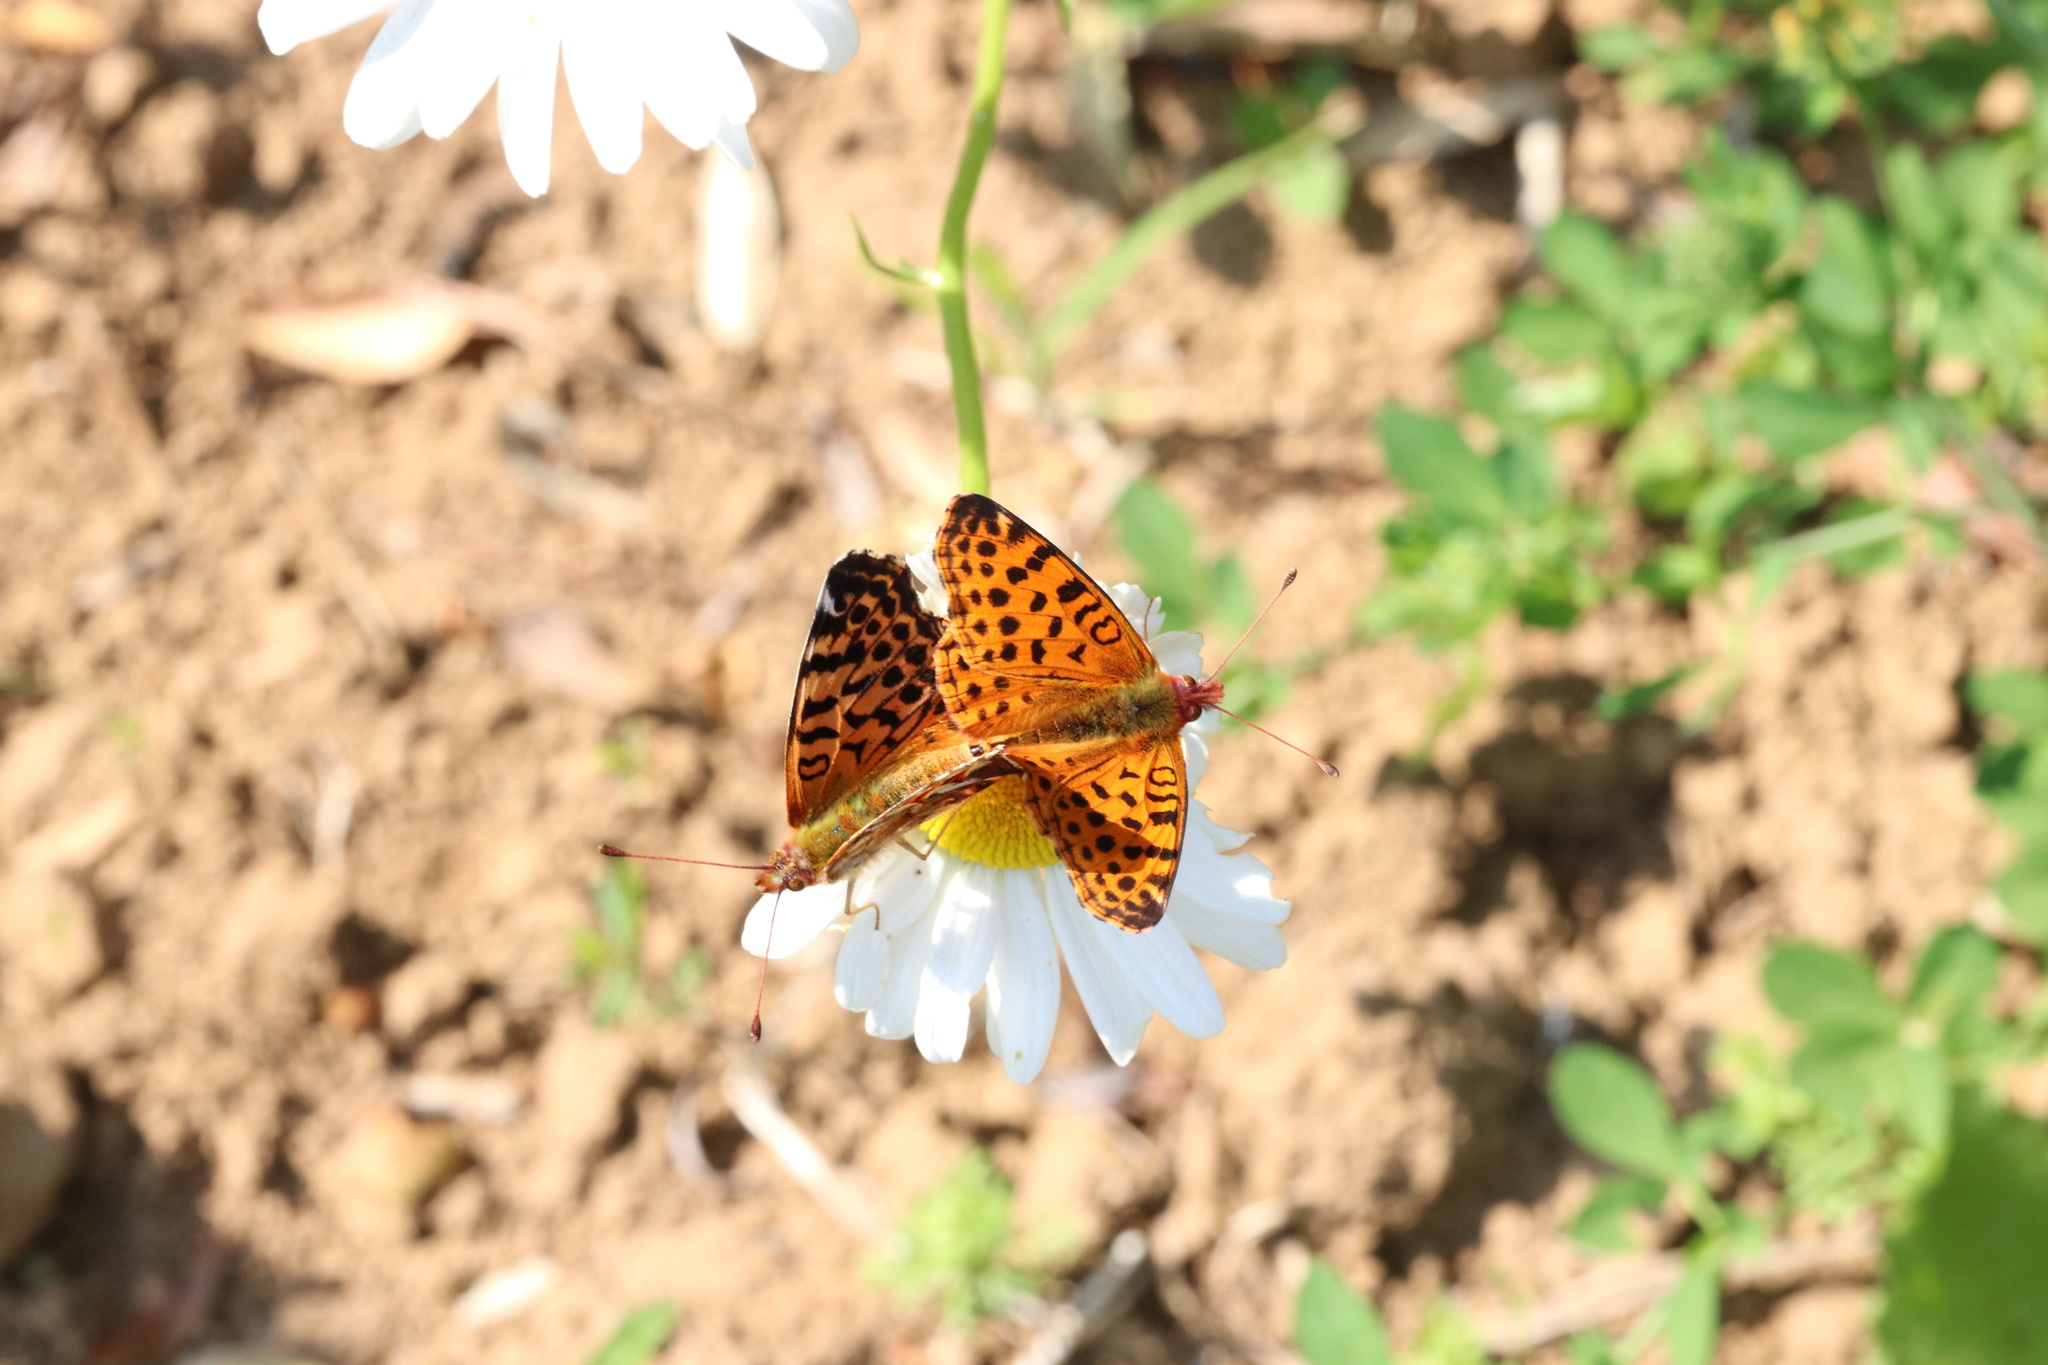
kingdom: Animalia
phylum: Arthropoda
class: Insecta
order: Lepidoptera
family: Nymphalidae
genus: Issoria
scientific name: Issoria Yramea cytheris
